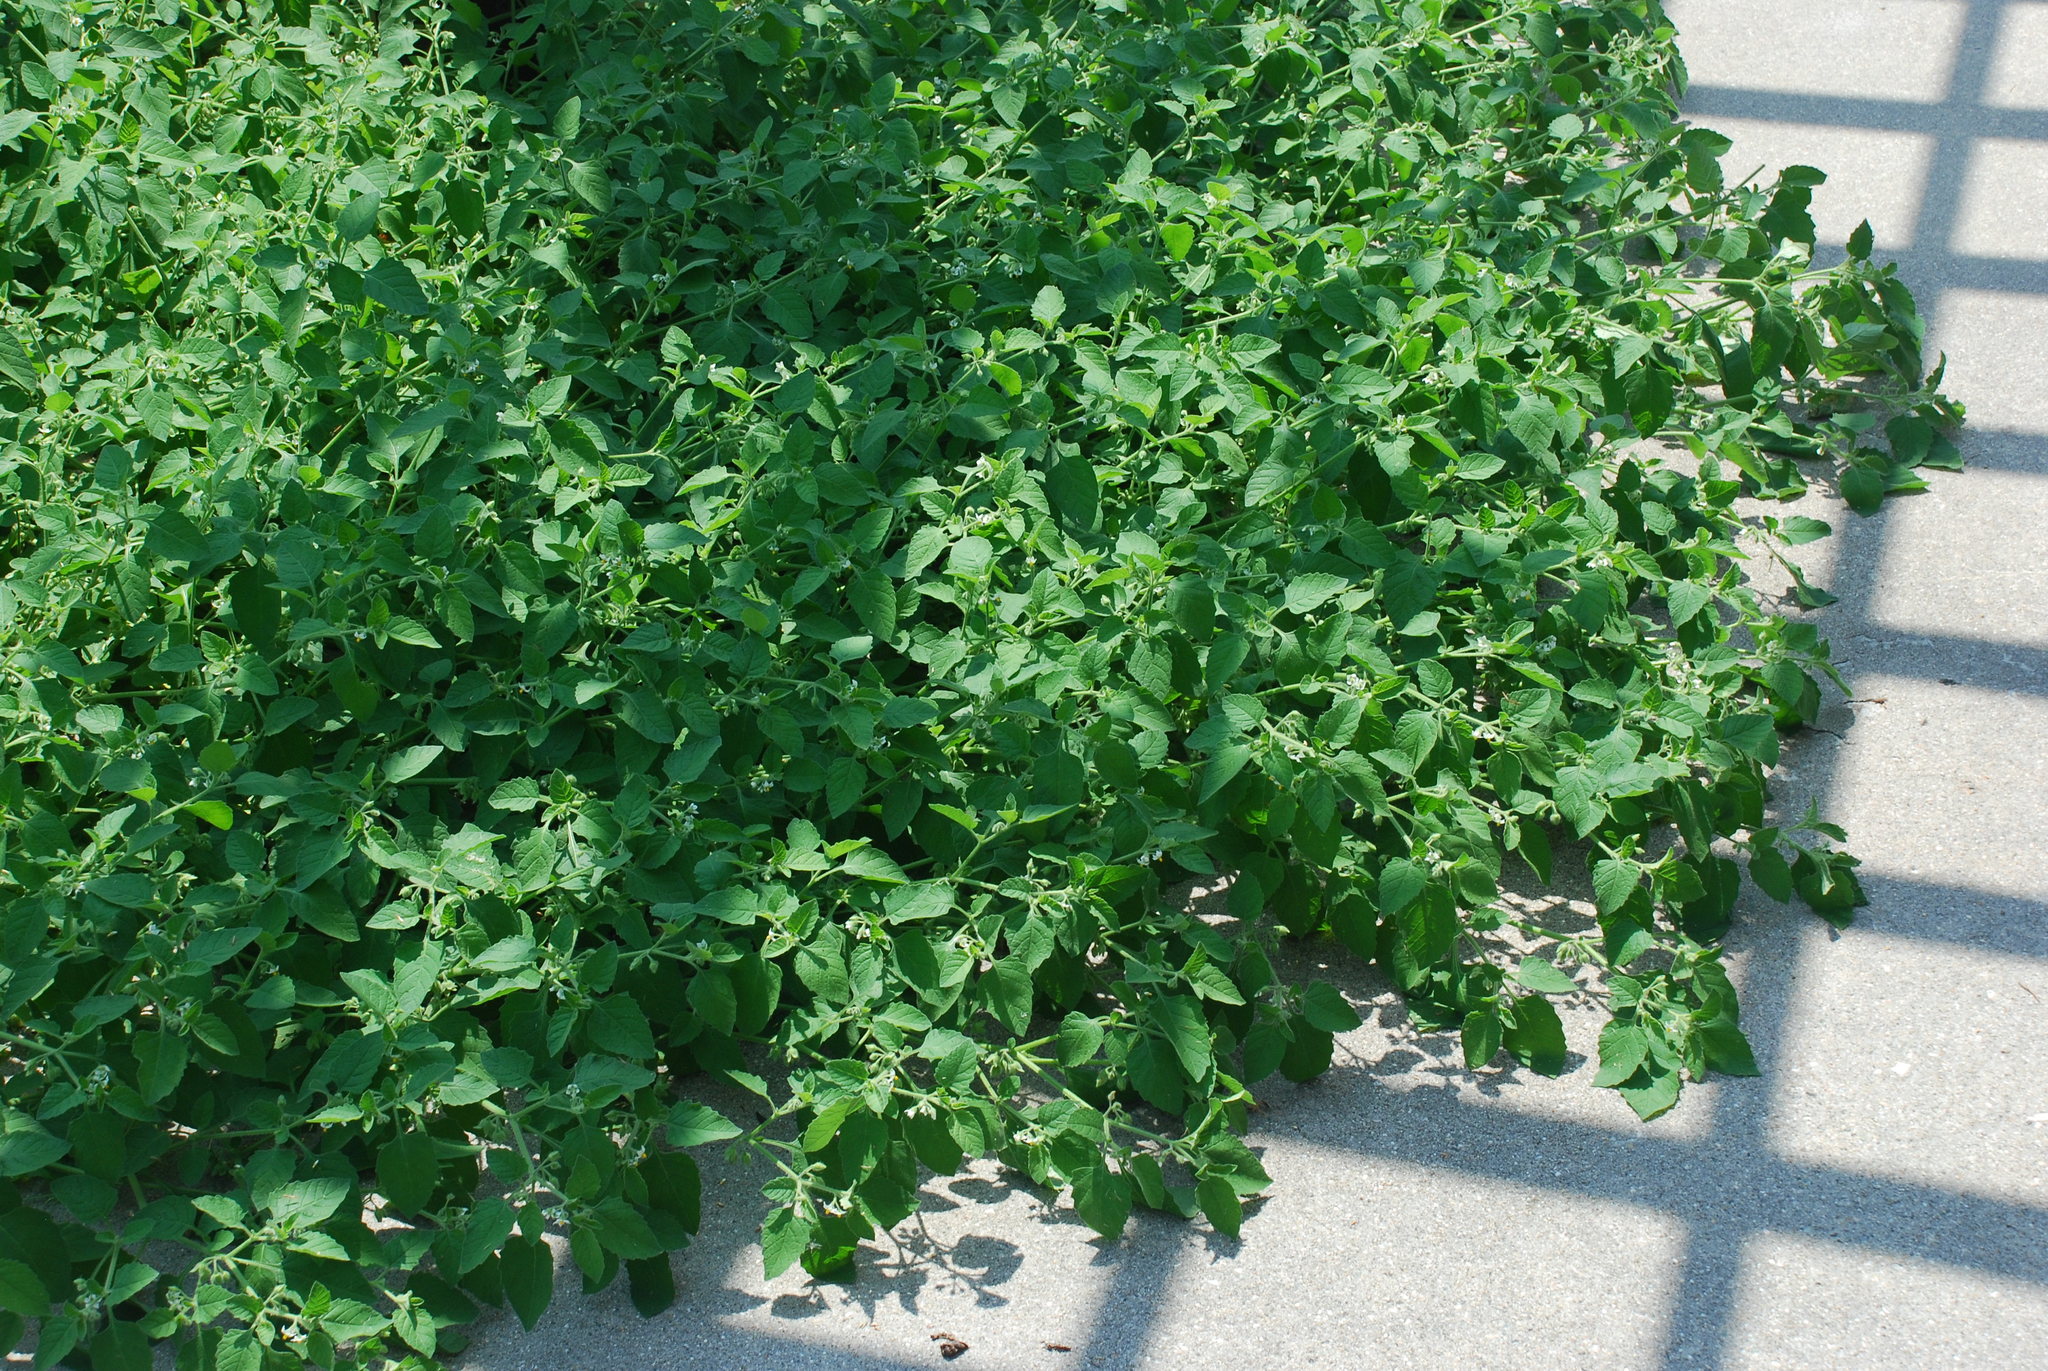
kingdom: Plantae
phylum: Tracheophyta
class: Magnoliopsida
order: Solanales
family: Solanaceae
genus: Solanum
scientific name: Solanum sarrachoides
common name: Leafy-fruited nightshade
